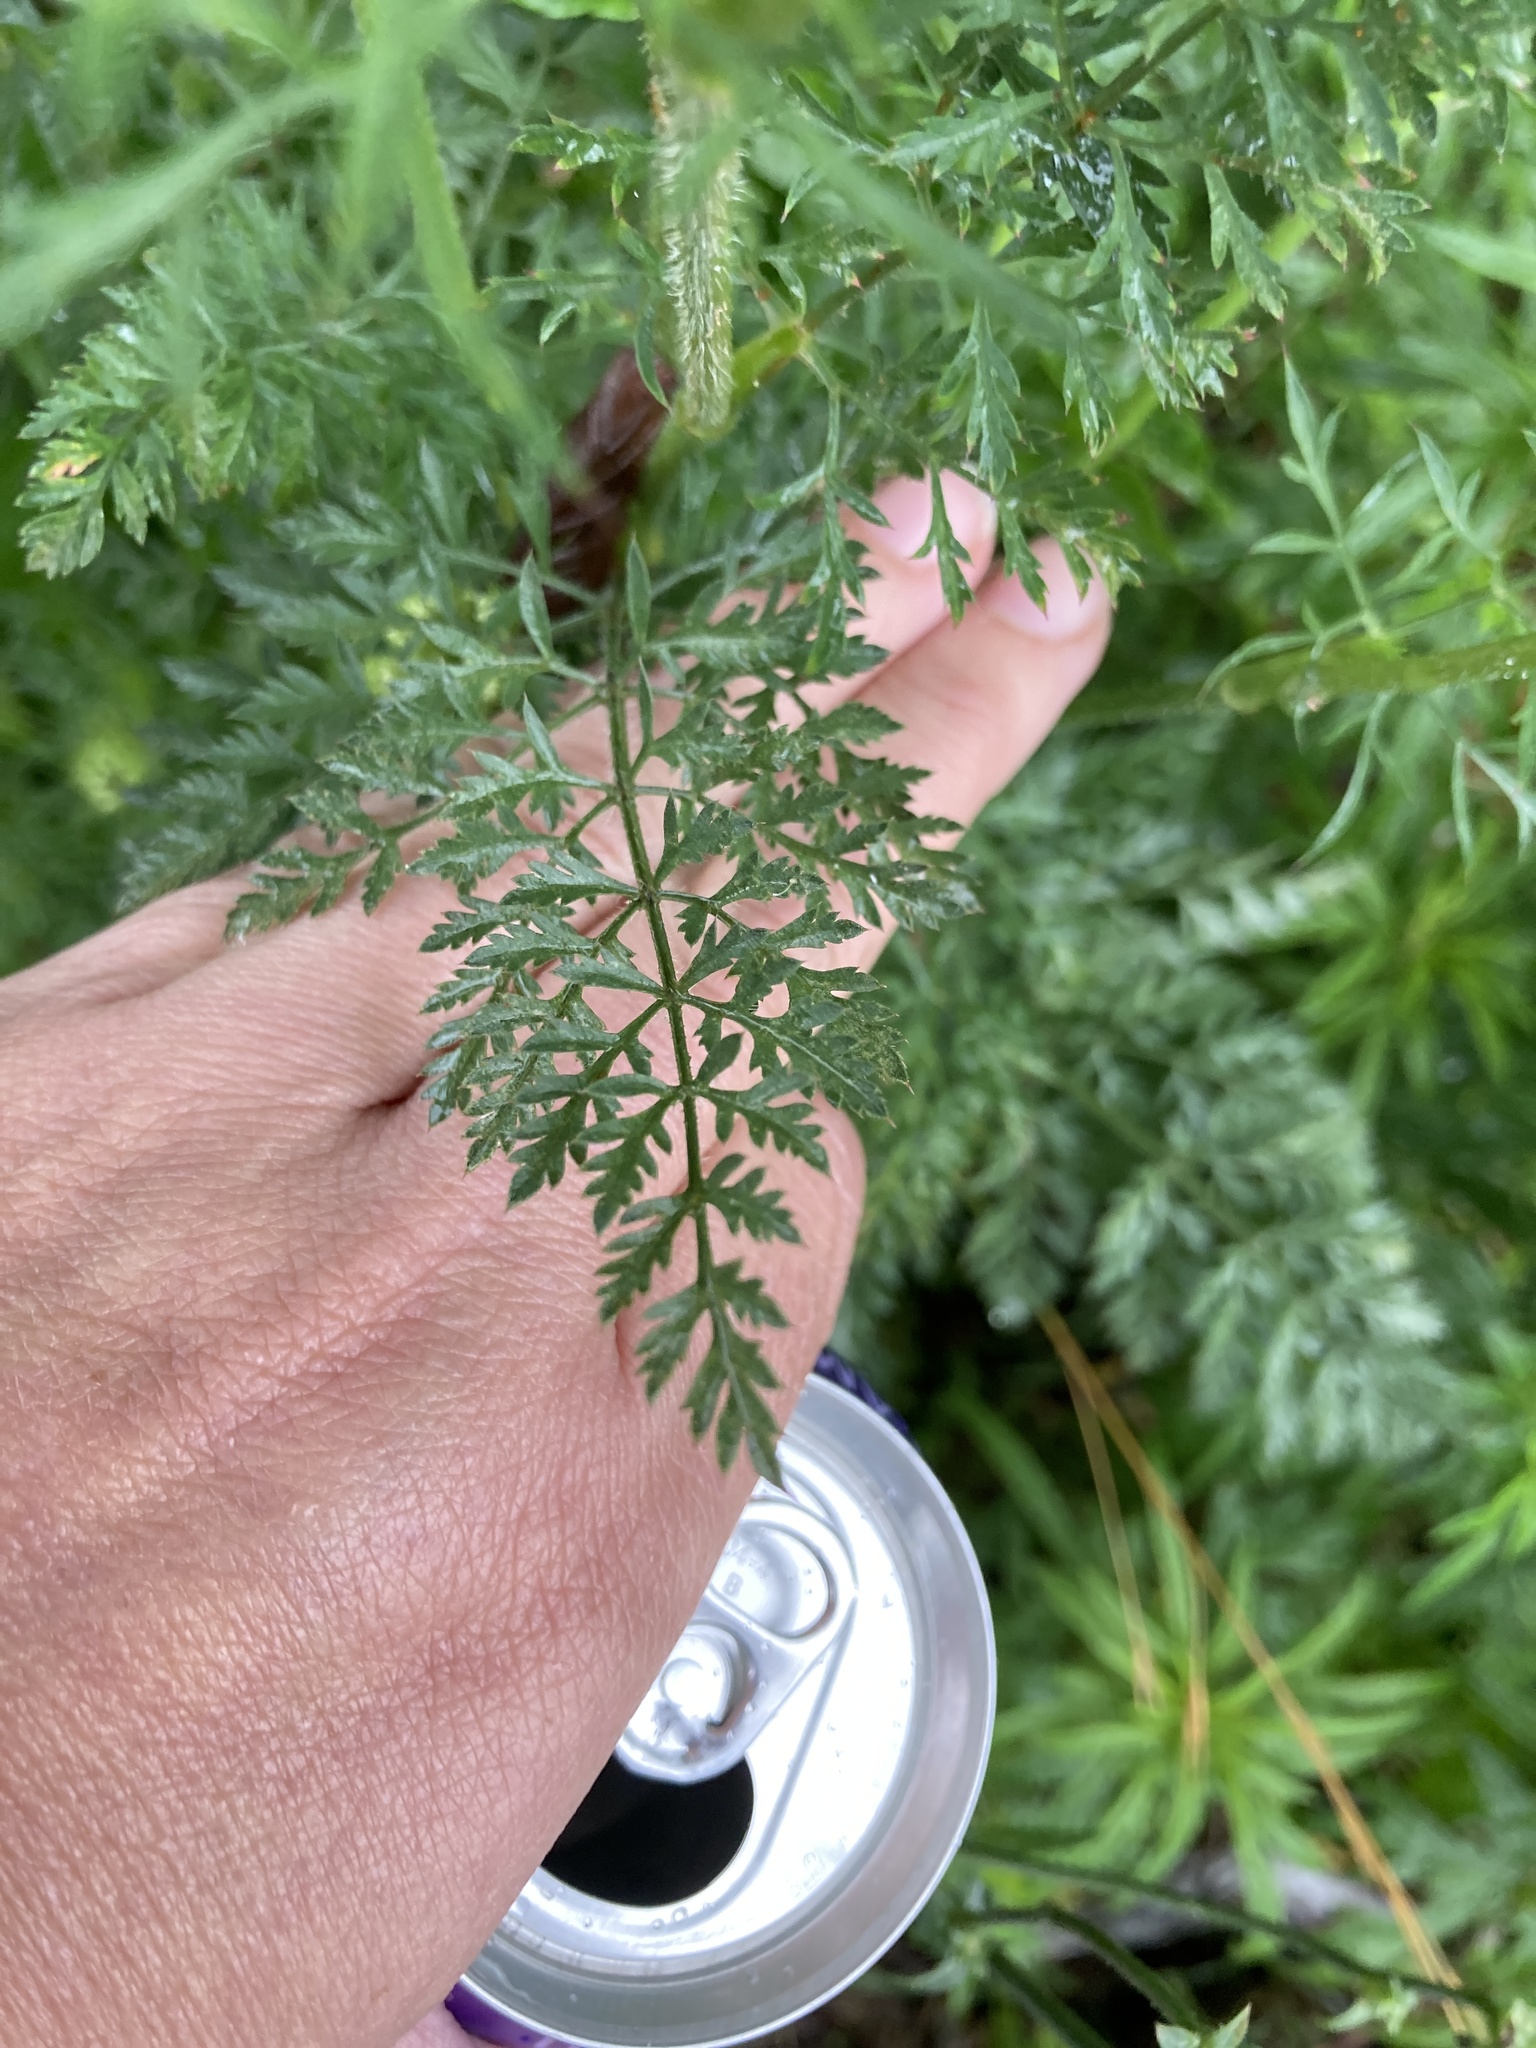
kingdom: Plantae
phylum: Tracheophyta
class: Magnoliopsida
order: Apiales
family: Apiaceae
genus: Daucus
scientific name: Daucus carota
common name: Wild carrot
